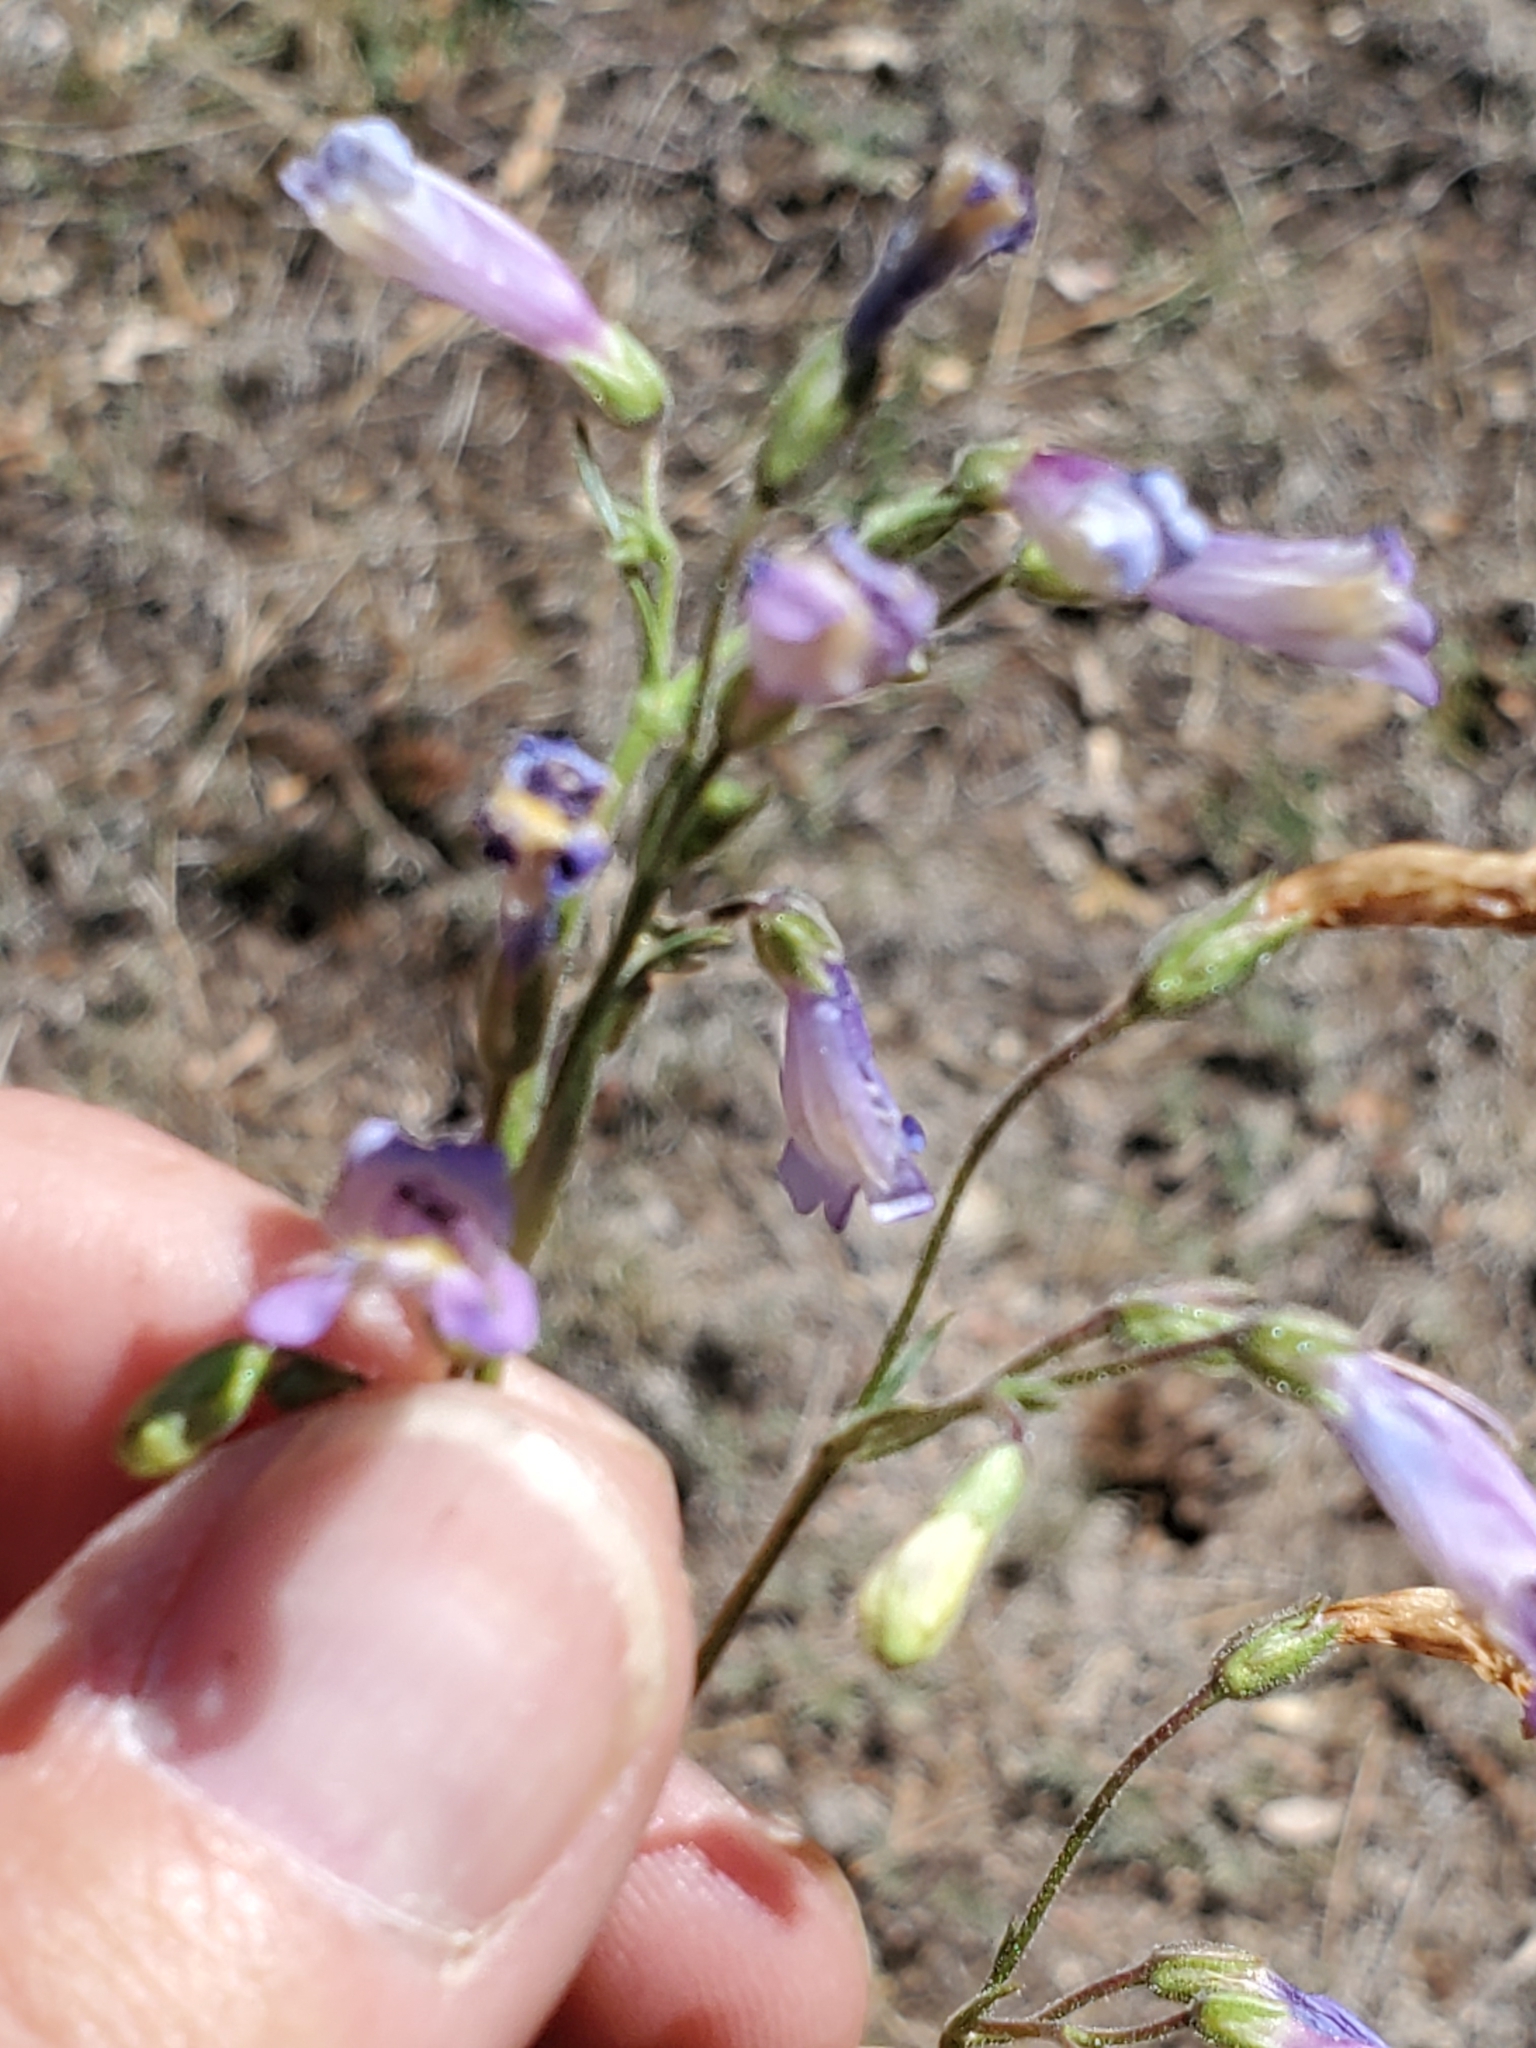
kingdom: Plantae
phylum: Tracheophyta
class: Magnoliopsida
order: Lamiales
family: Plantaginaceae
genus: Penstemon
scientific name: Penstemon griffinii
